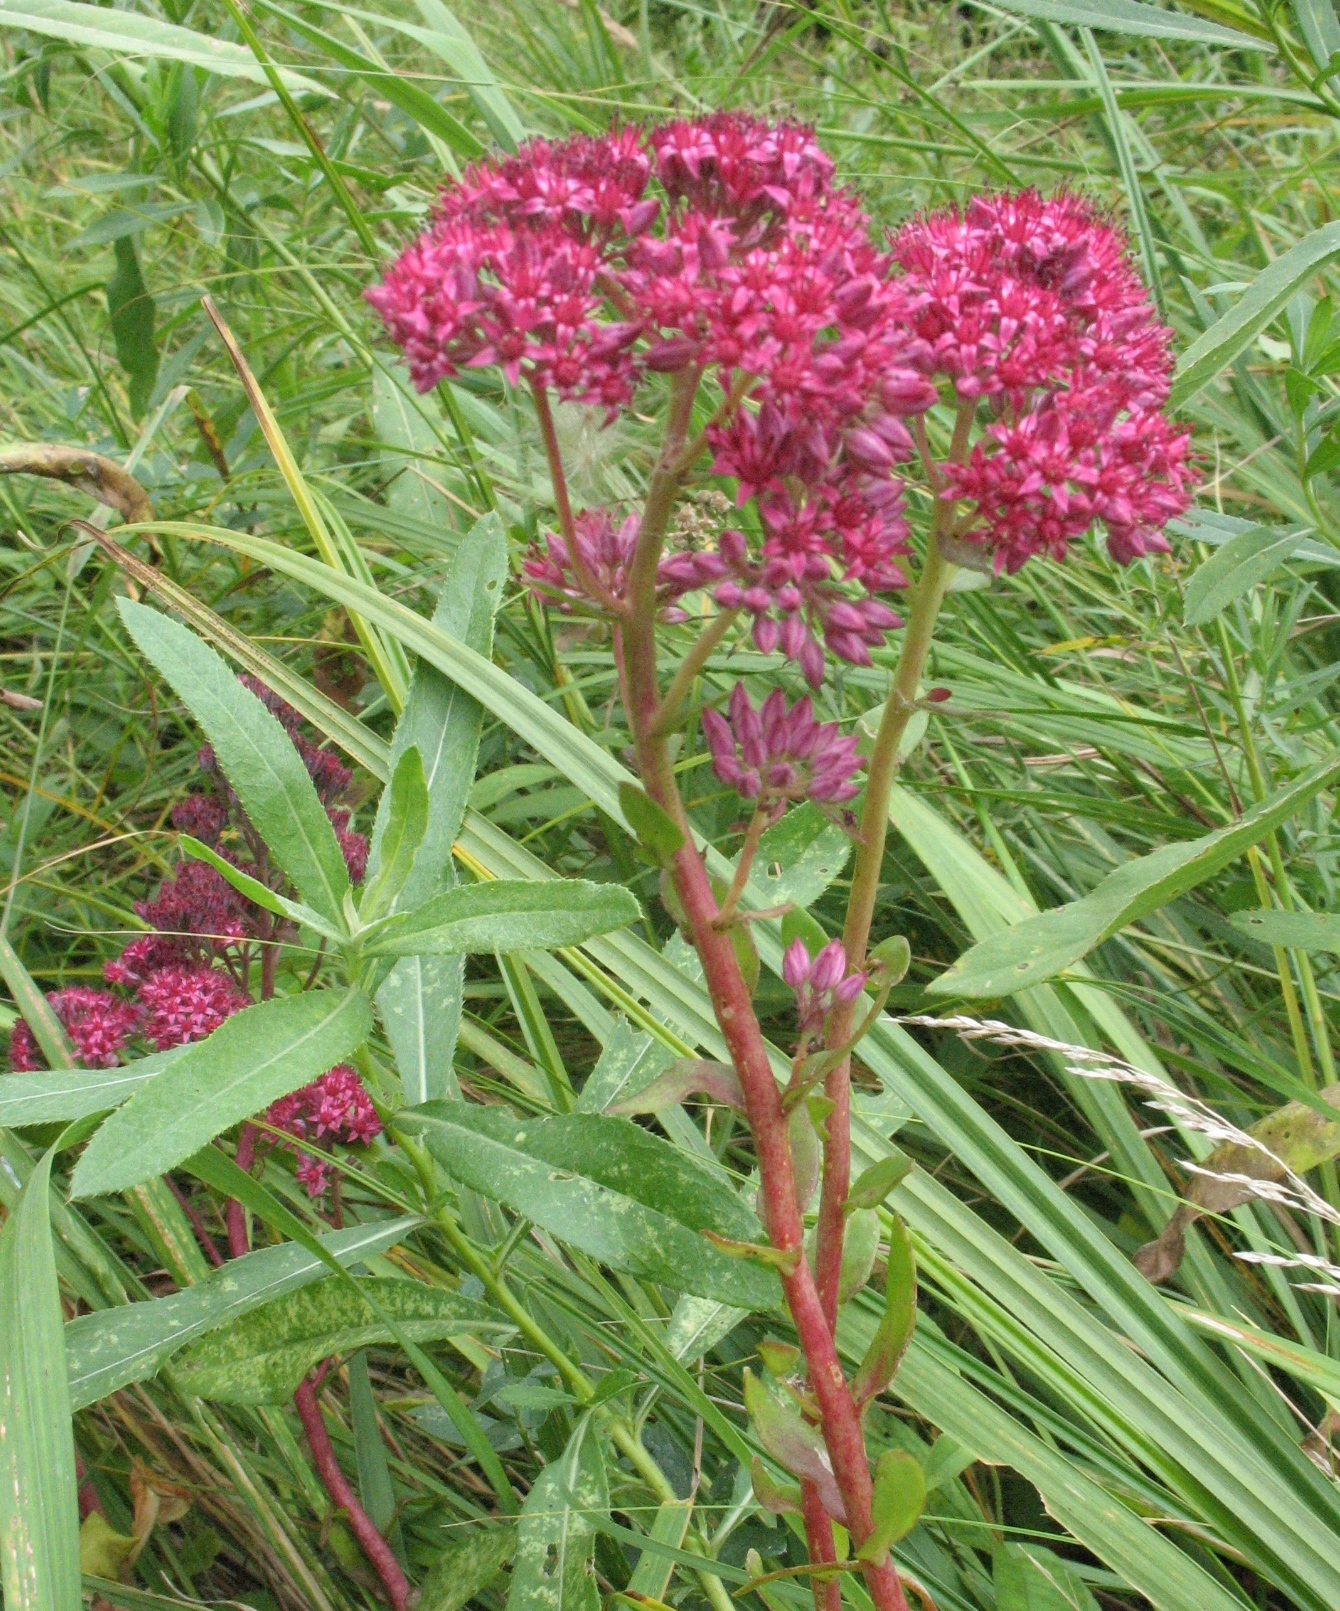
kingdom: Plantae
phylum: Tracheophyta
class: Magnoliopsida
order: Saxifragales
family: Crassulaceae
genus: Hylotelephium
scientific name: Hylotelephium telephium
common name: Live-forever
